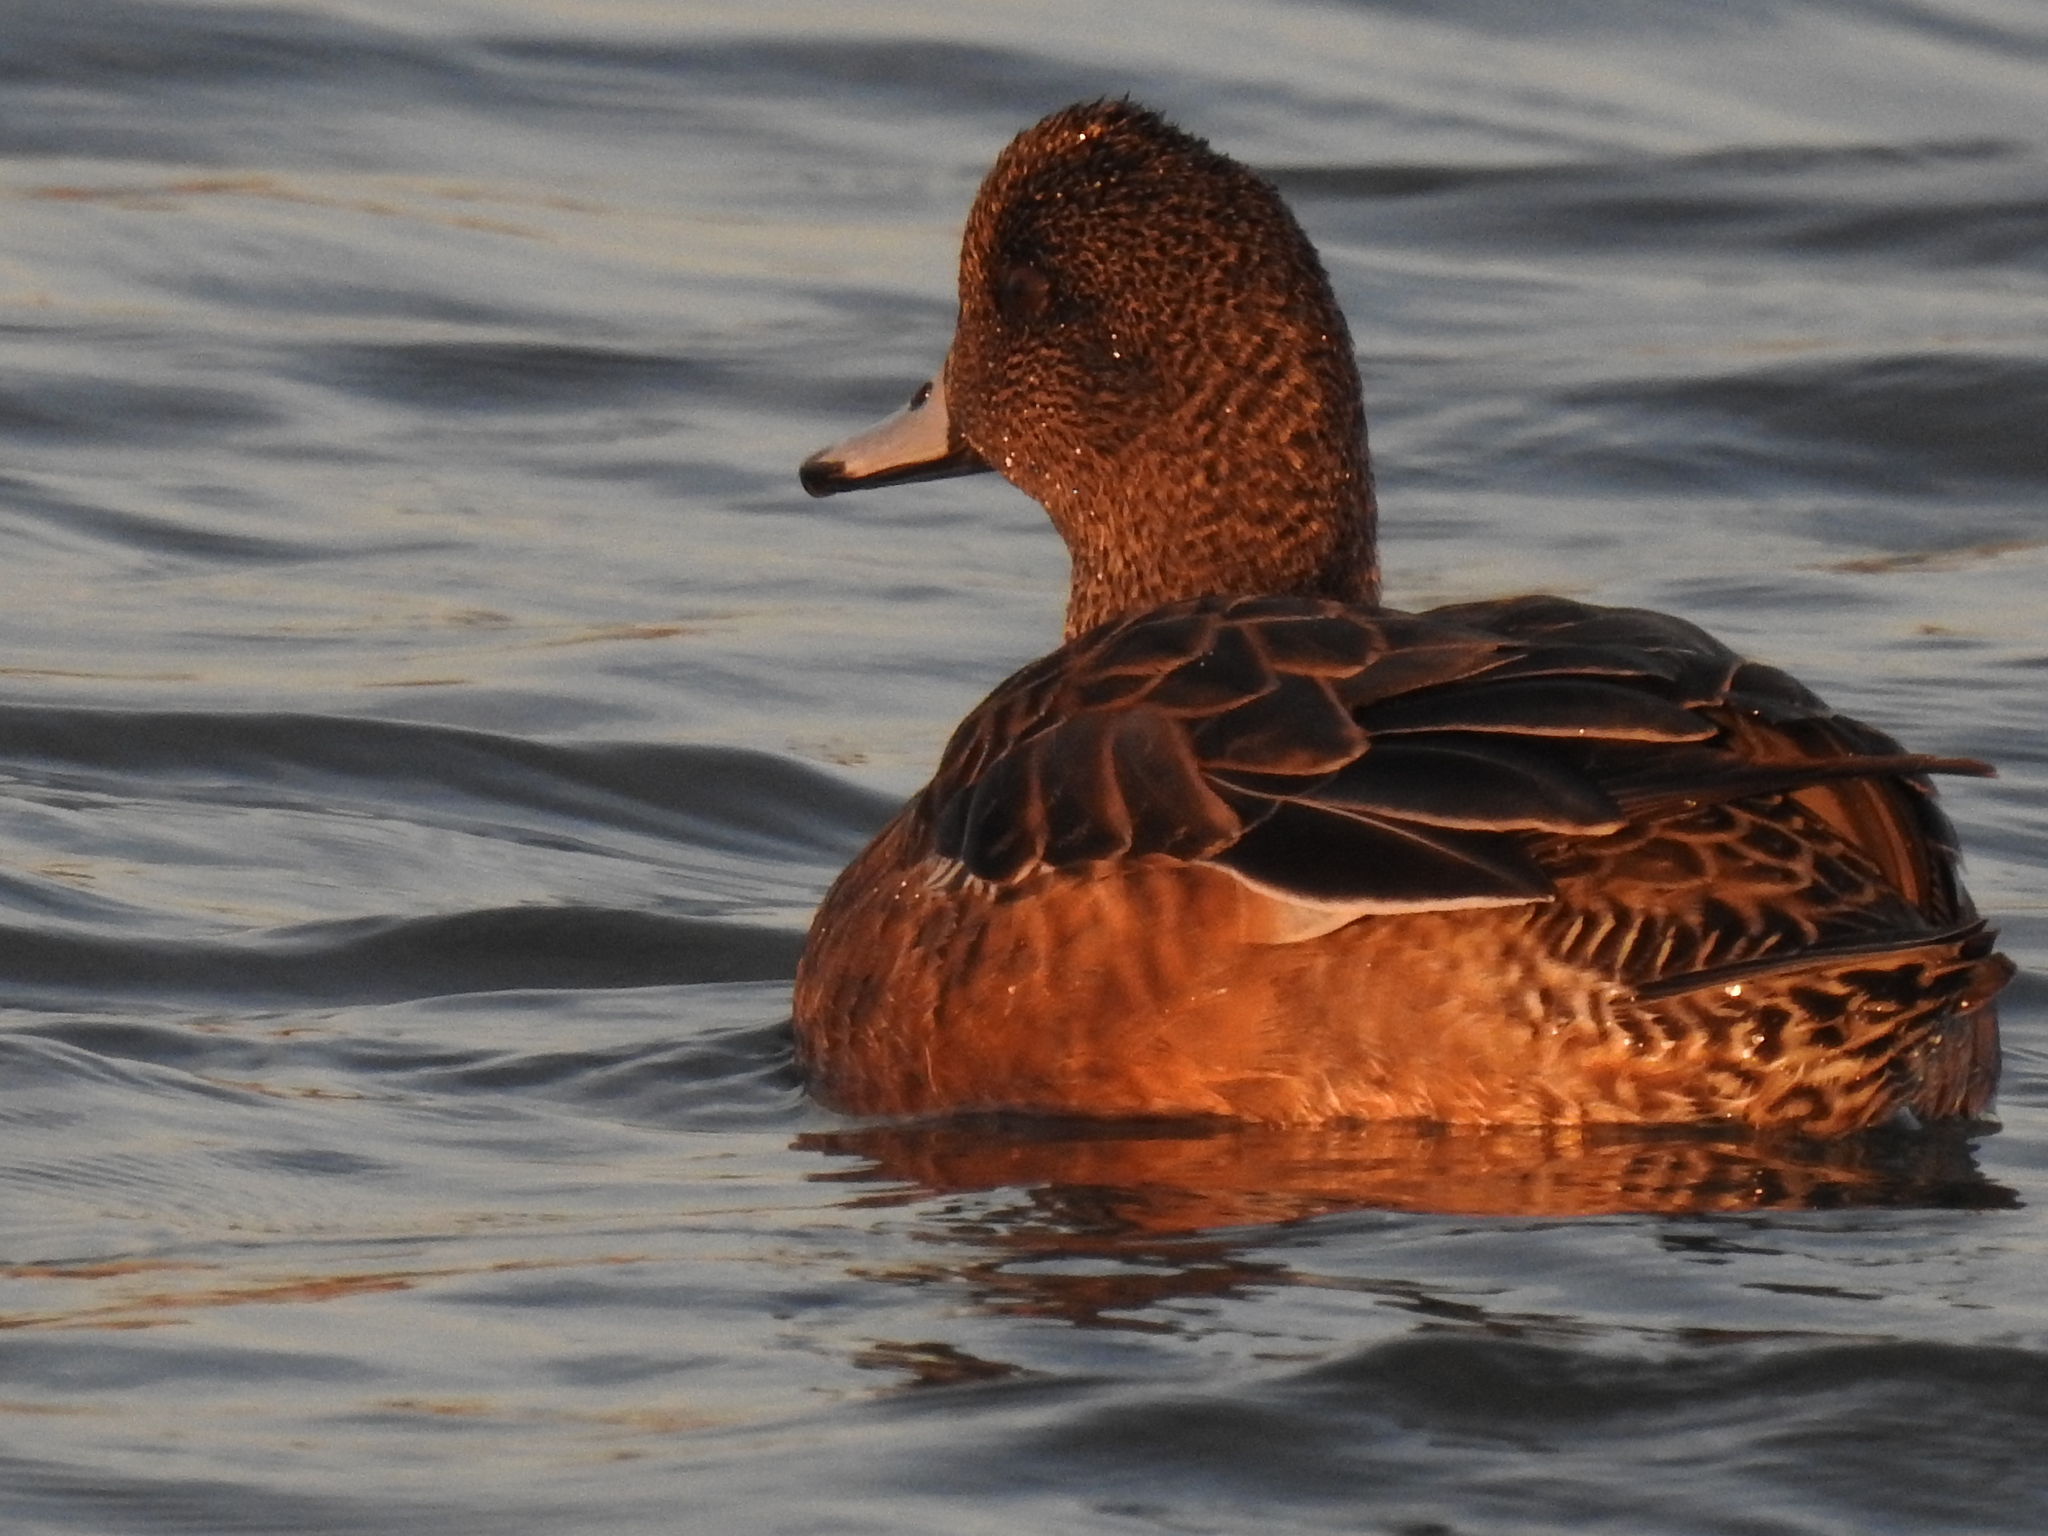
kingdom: Animalia
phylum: Chordata
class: Aves
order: Anseriformes
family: Anatidae
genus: Mareca
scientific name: Mareca penelope
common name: Eurasian wigeon
